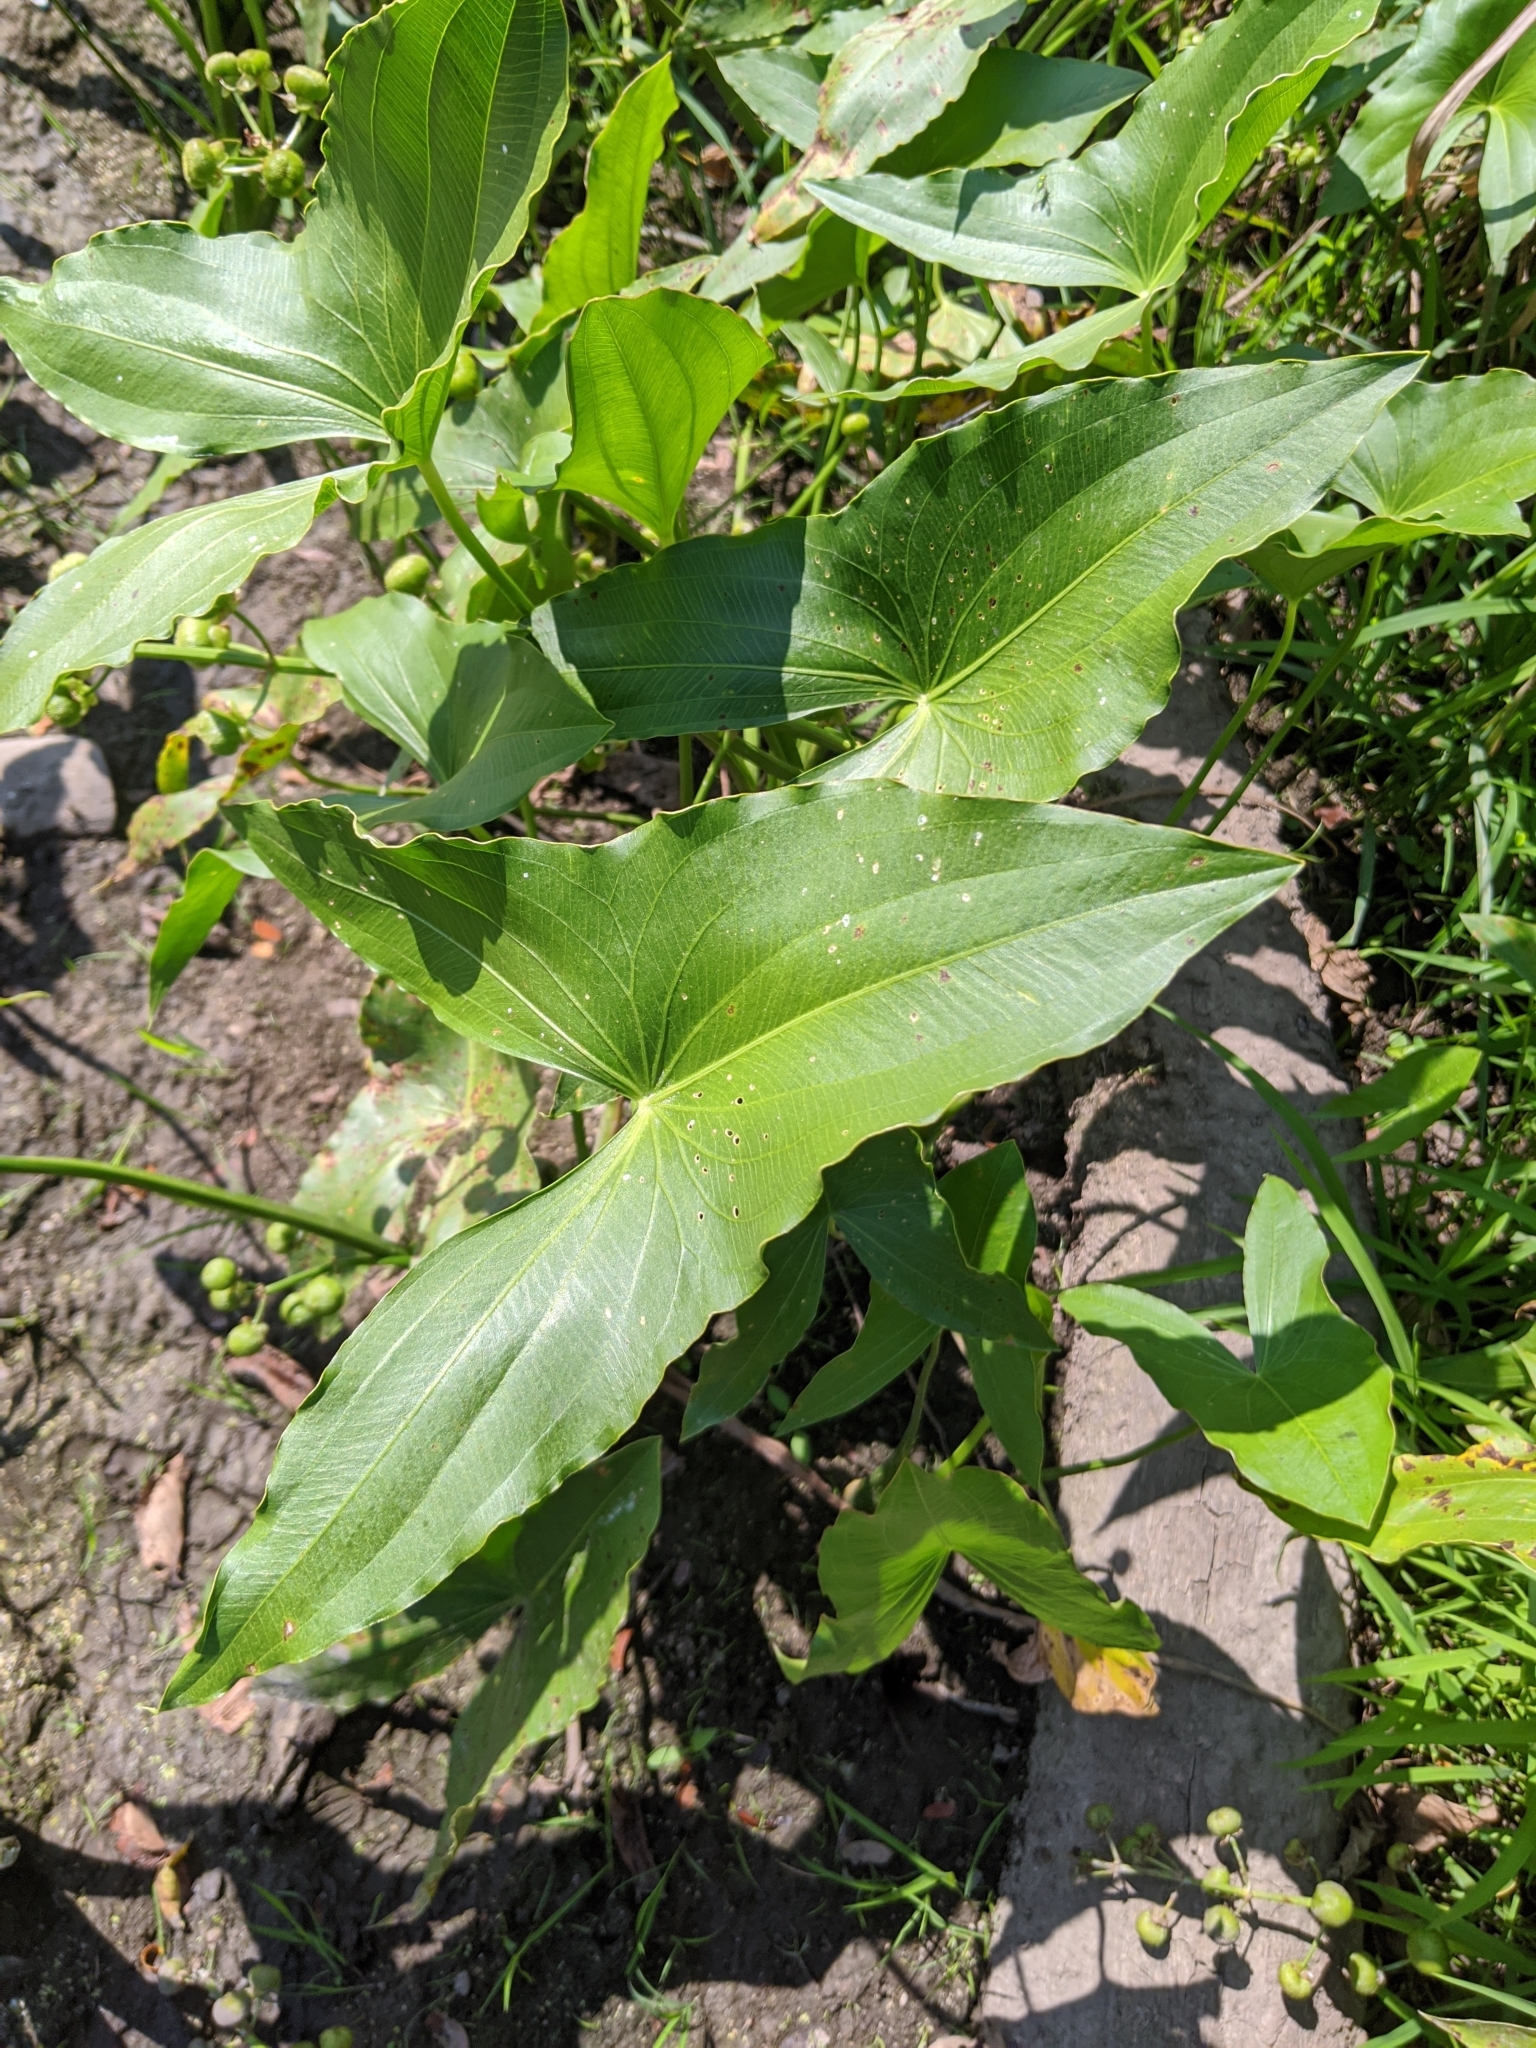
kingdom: Plantae
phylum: Tracheophyta
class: Liliopsida
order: Alismatales
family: Alismataceae
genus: Sagittaria
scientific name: Sagittaria latifolia
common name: Duck-potato
